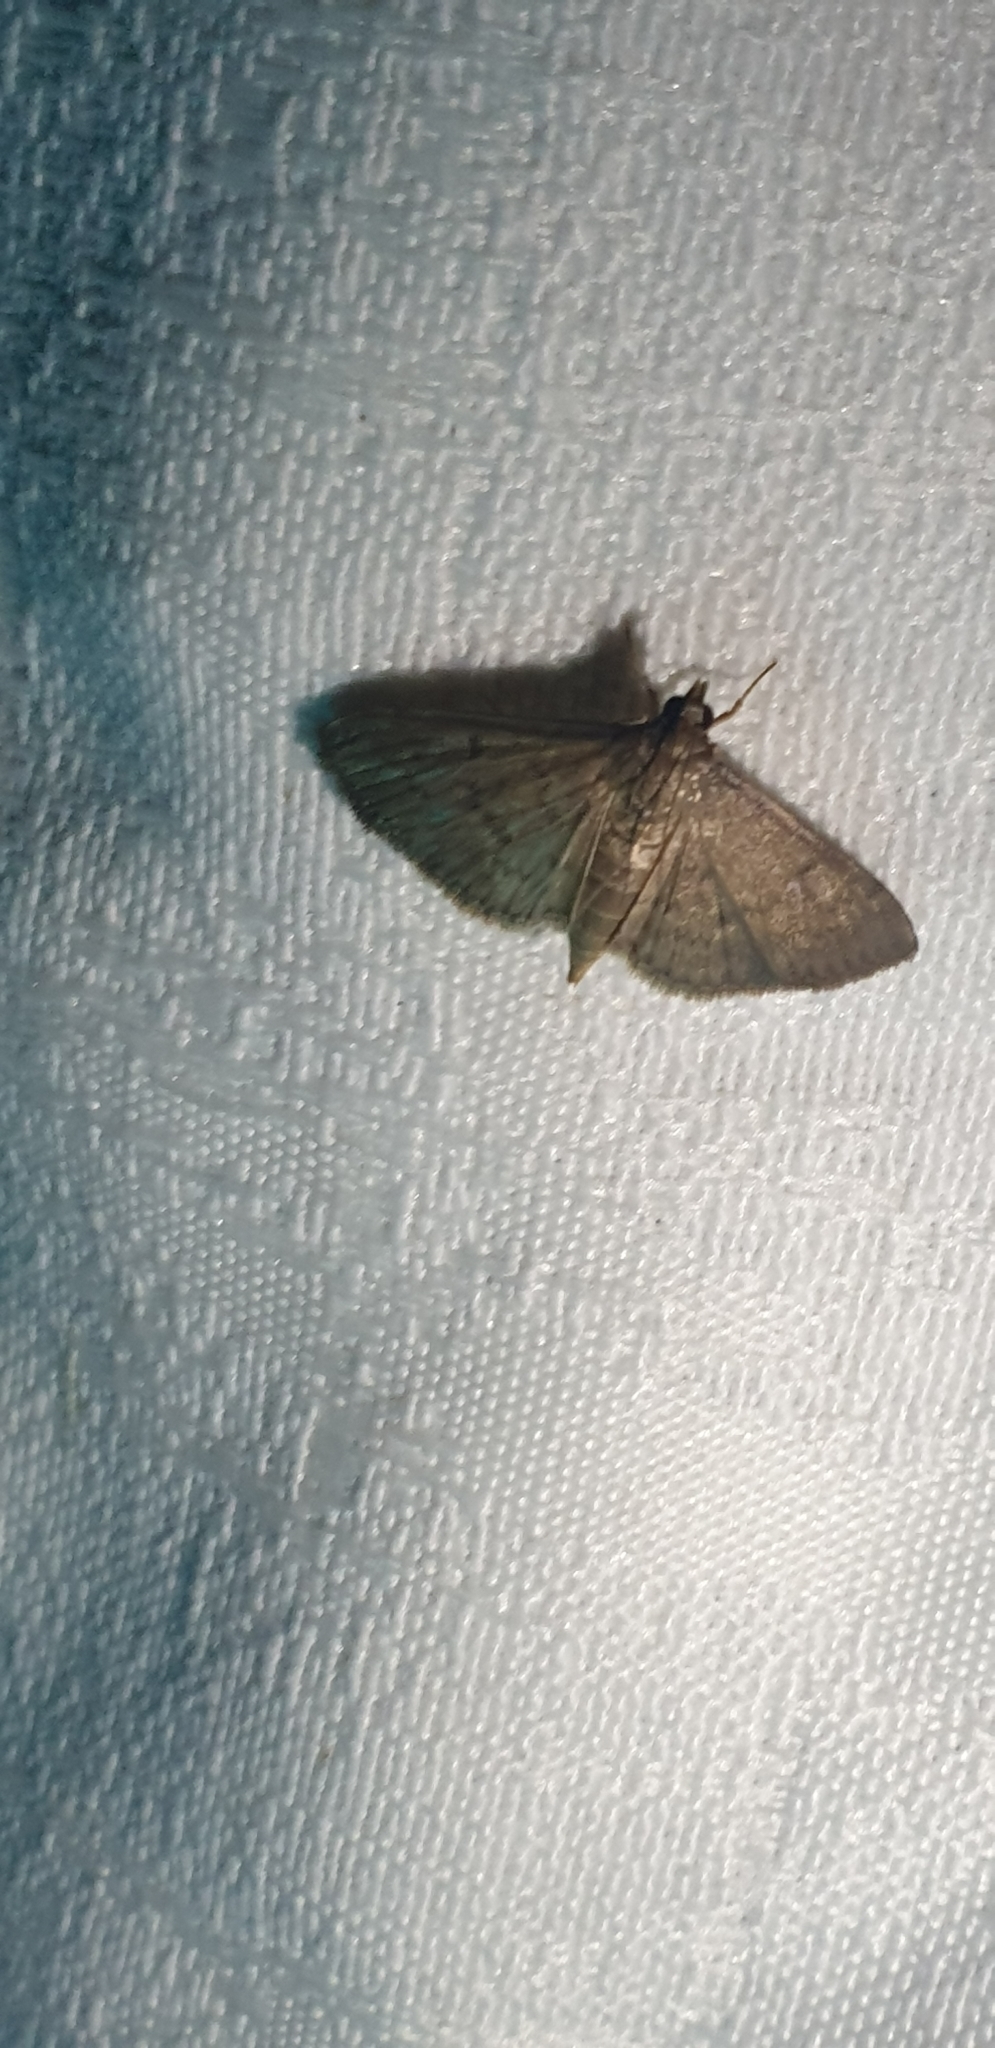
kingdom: Animalia
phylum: Arthropoda
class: Insecta
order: Lepidoptera
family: Crambidae
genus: Herpetogramma
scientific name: Herpetogramma licarsisalis
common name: Grass webworm
